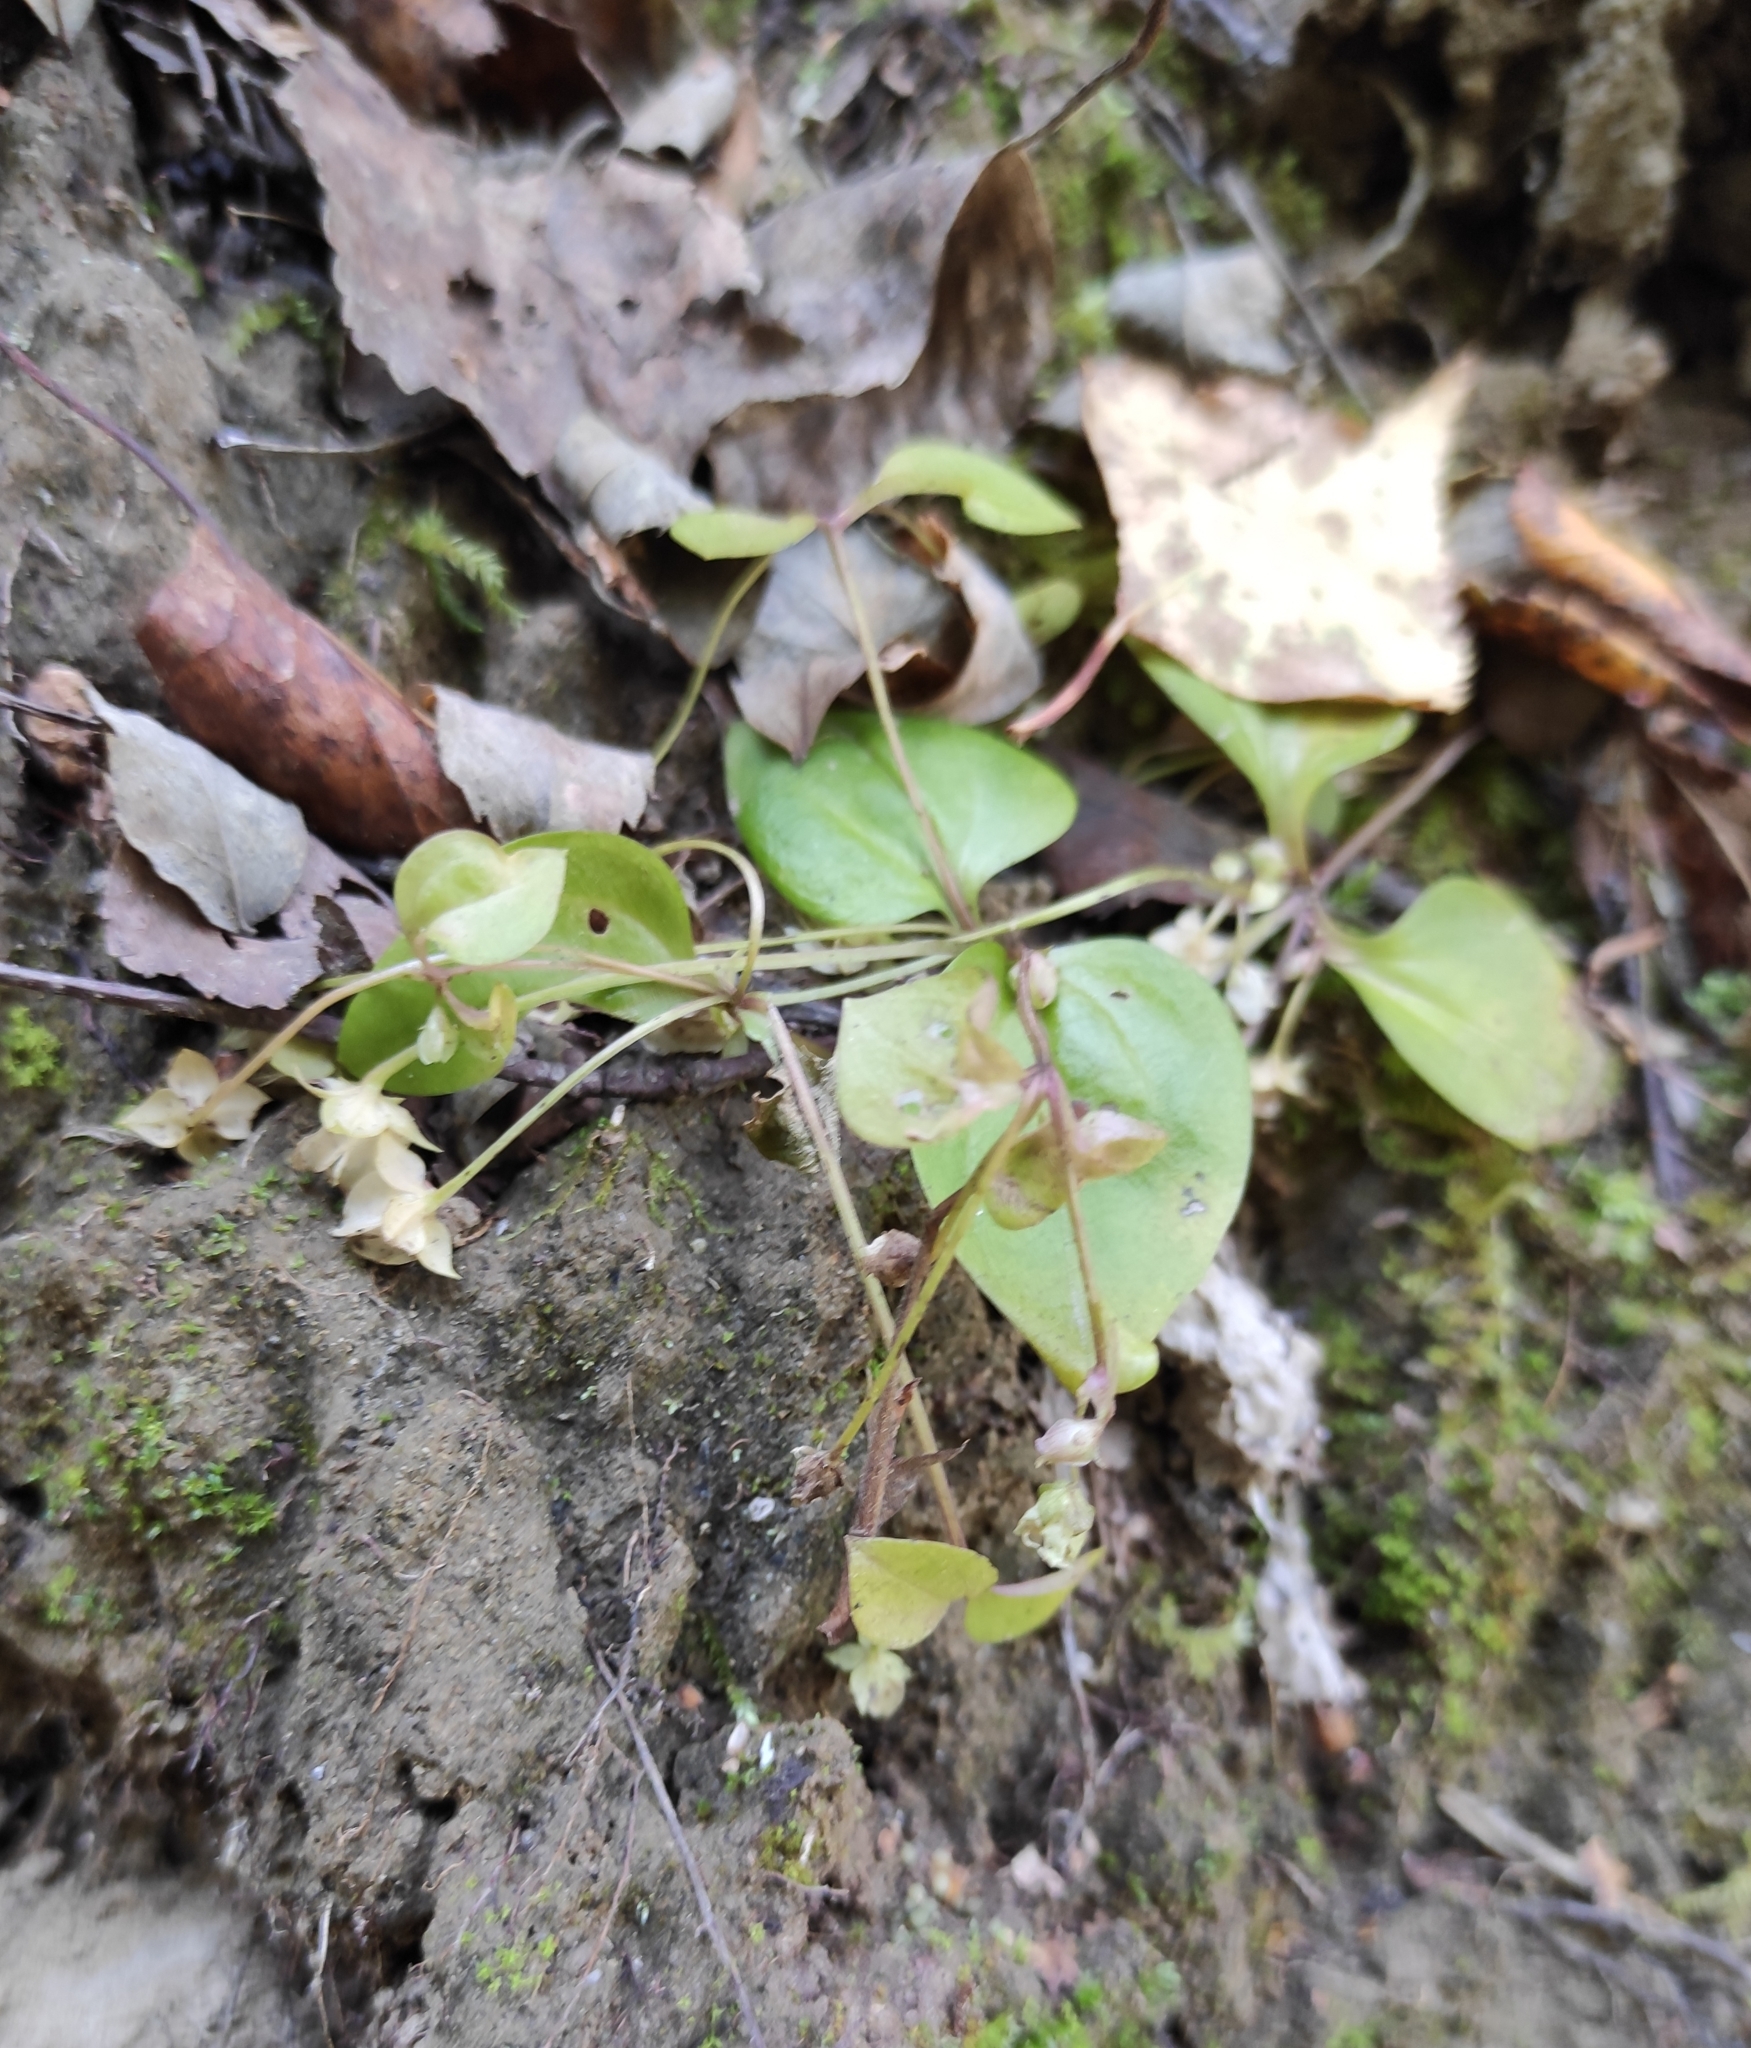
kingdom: Plantae
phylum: Tracheophyta
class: Magnoliopsida
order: Gentianales
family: Gentianaceae
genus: Swertia
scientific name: Swertia dichotoma
